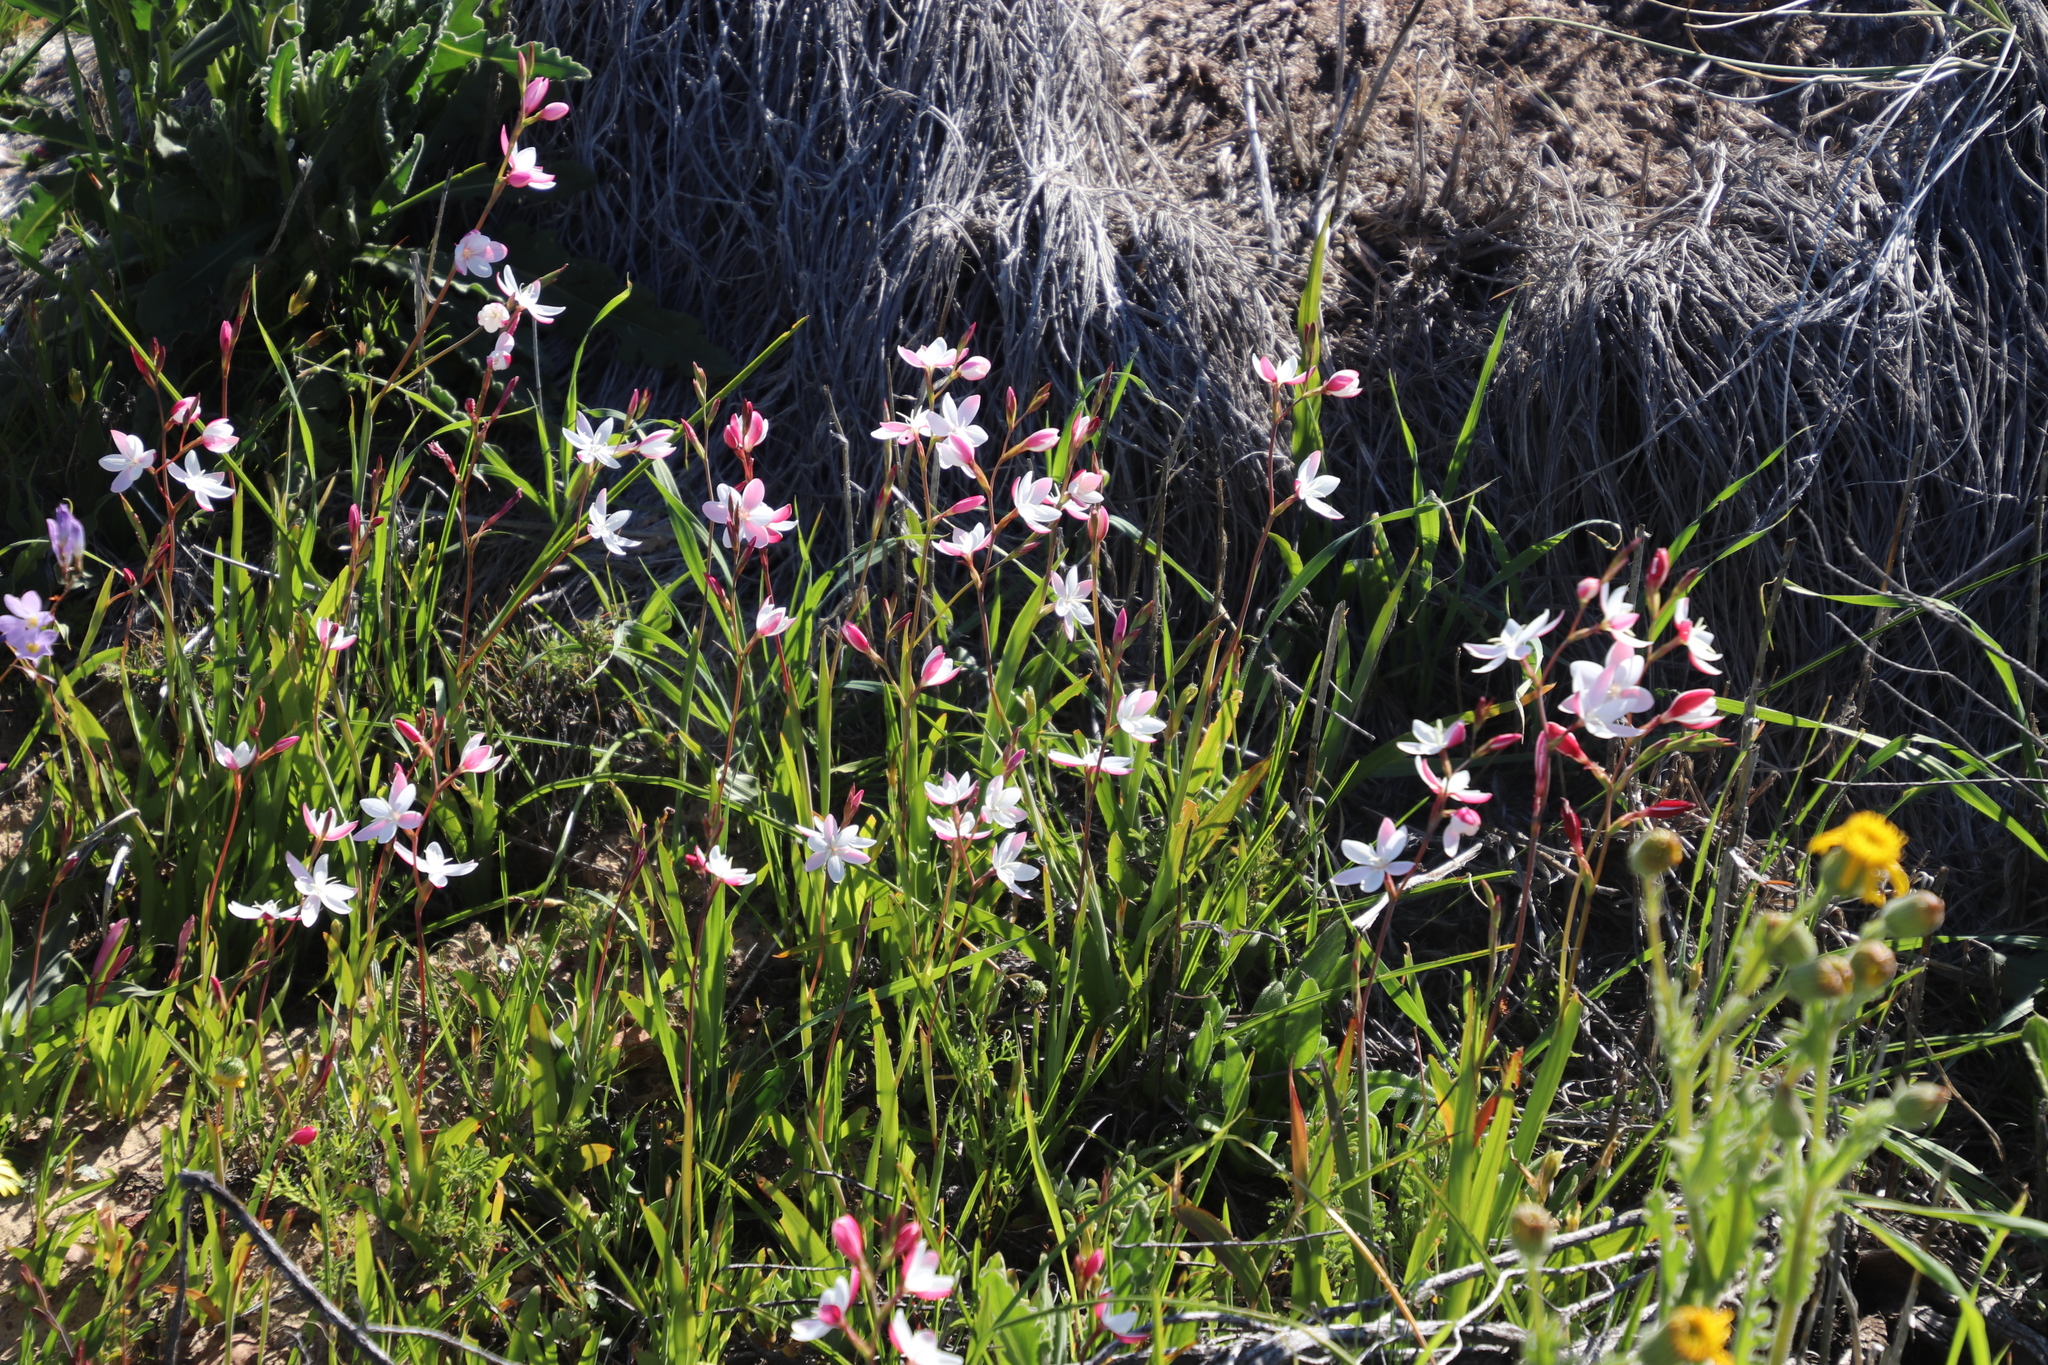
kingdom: Plantae
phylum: Tracheophyta
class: Liliopsida
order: Asparagales
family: Iridaceae
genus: Hesperantha
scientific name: Hesperantha cucullata
